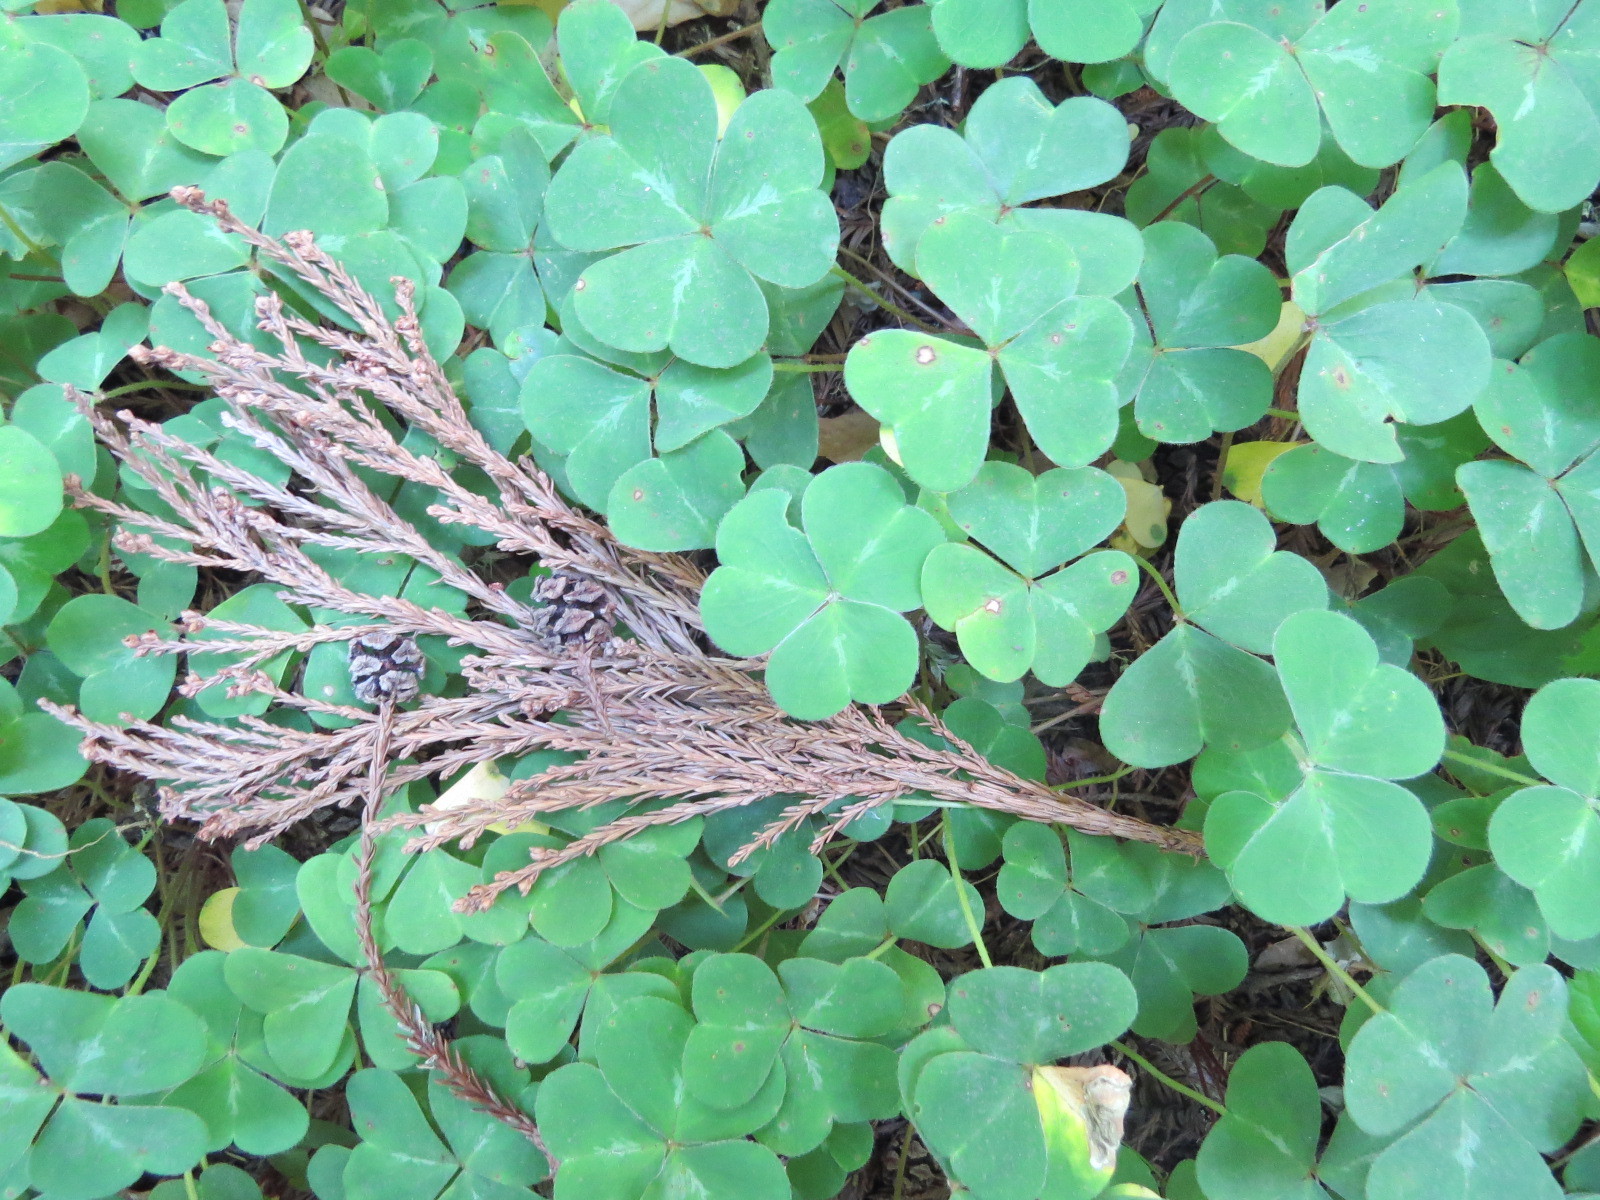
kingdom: Plantae
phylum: Tracheophyta
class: Magnoliopsida
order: Oxalidales
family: Oxalidaceae
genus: Oxalis
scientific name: Oxalis oregana
